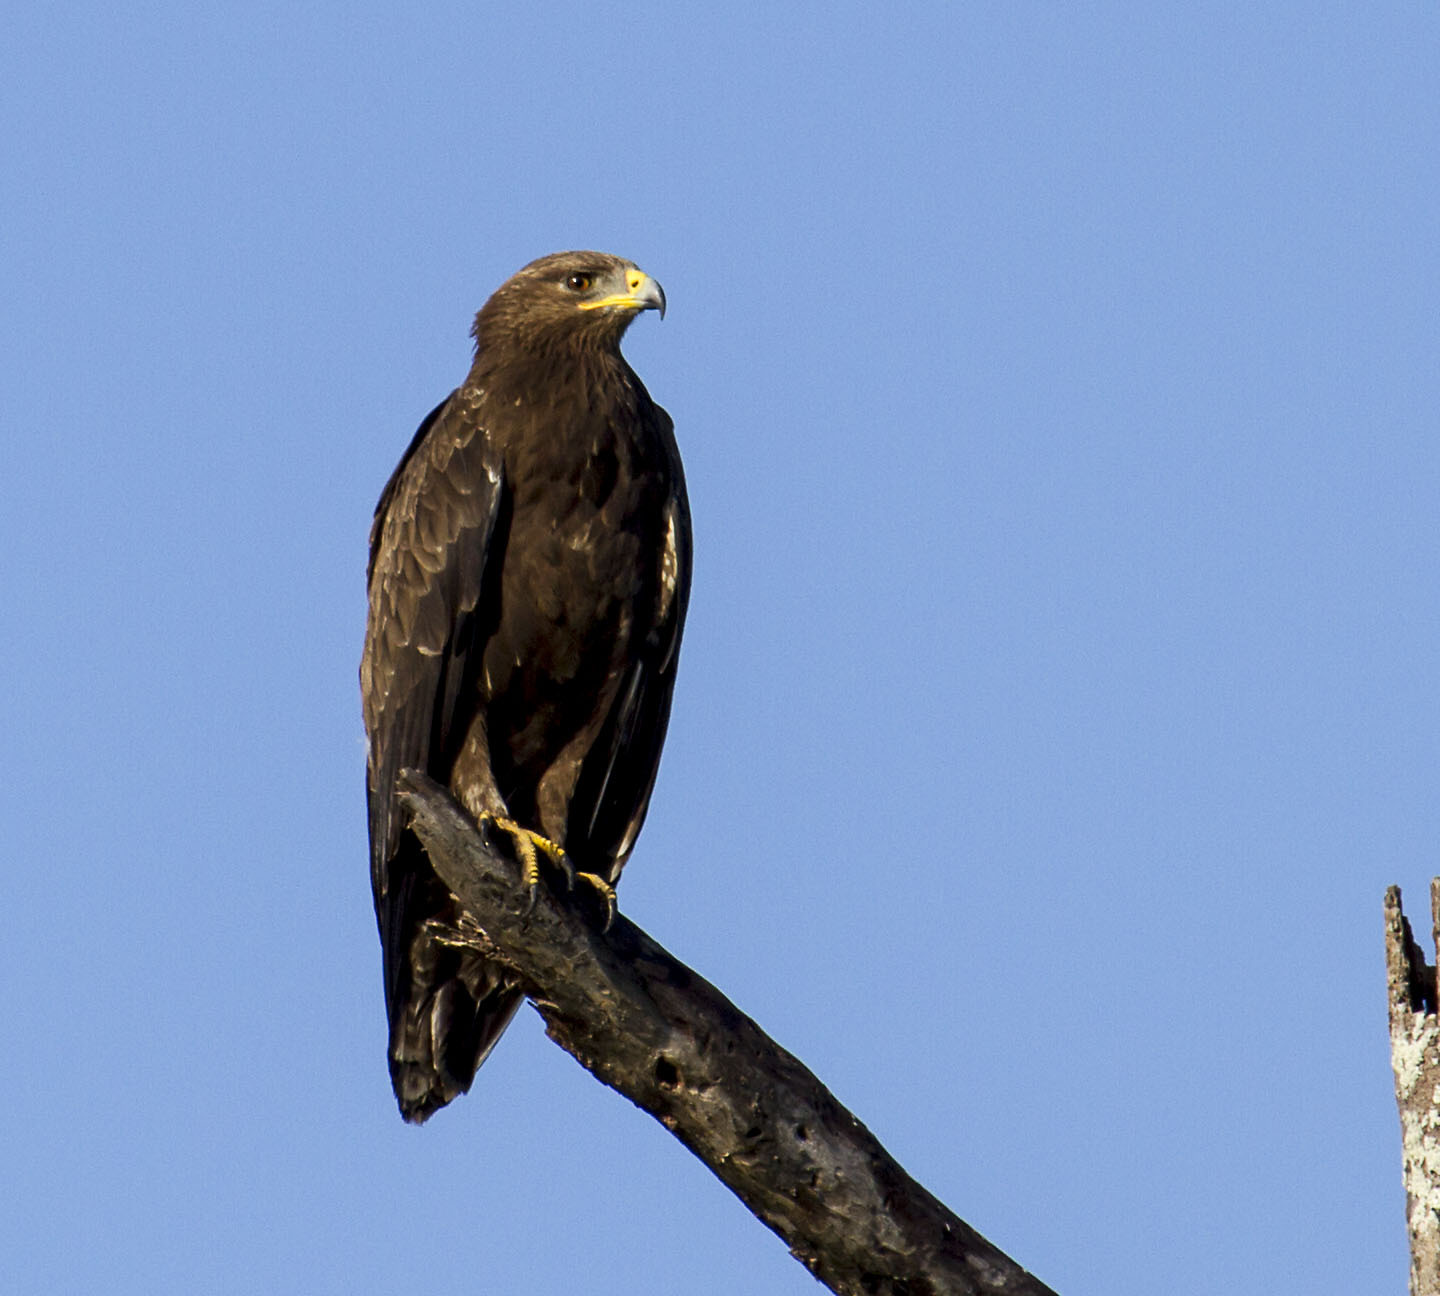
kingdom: Animalia
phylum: Chordata
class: Aves
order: Accipitriformes
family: Accipitridae
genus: Hieraaetus
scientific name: Hieraaetus wahlbergi
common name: Wahlberg's eagle
